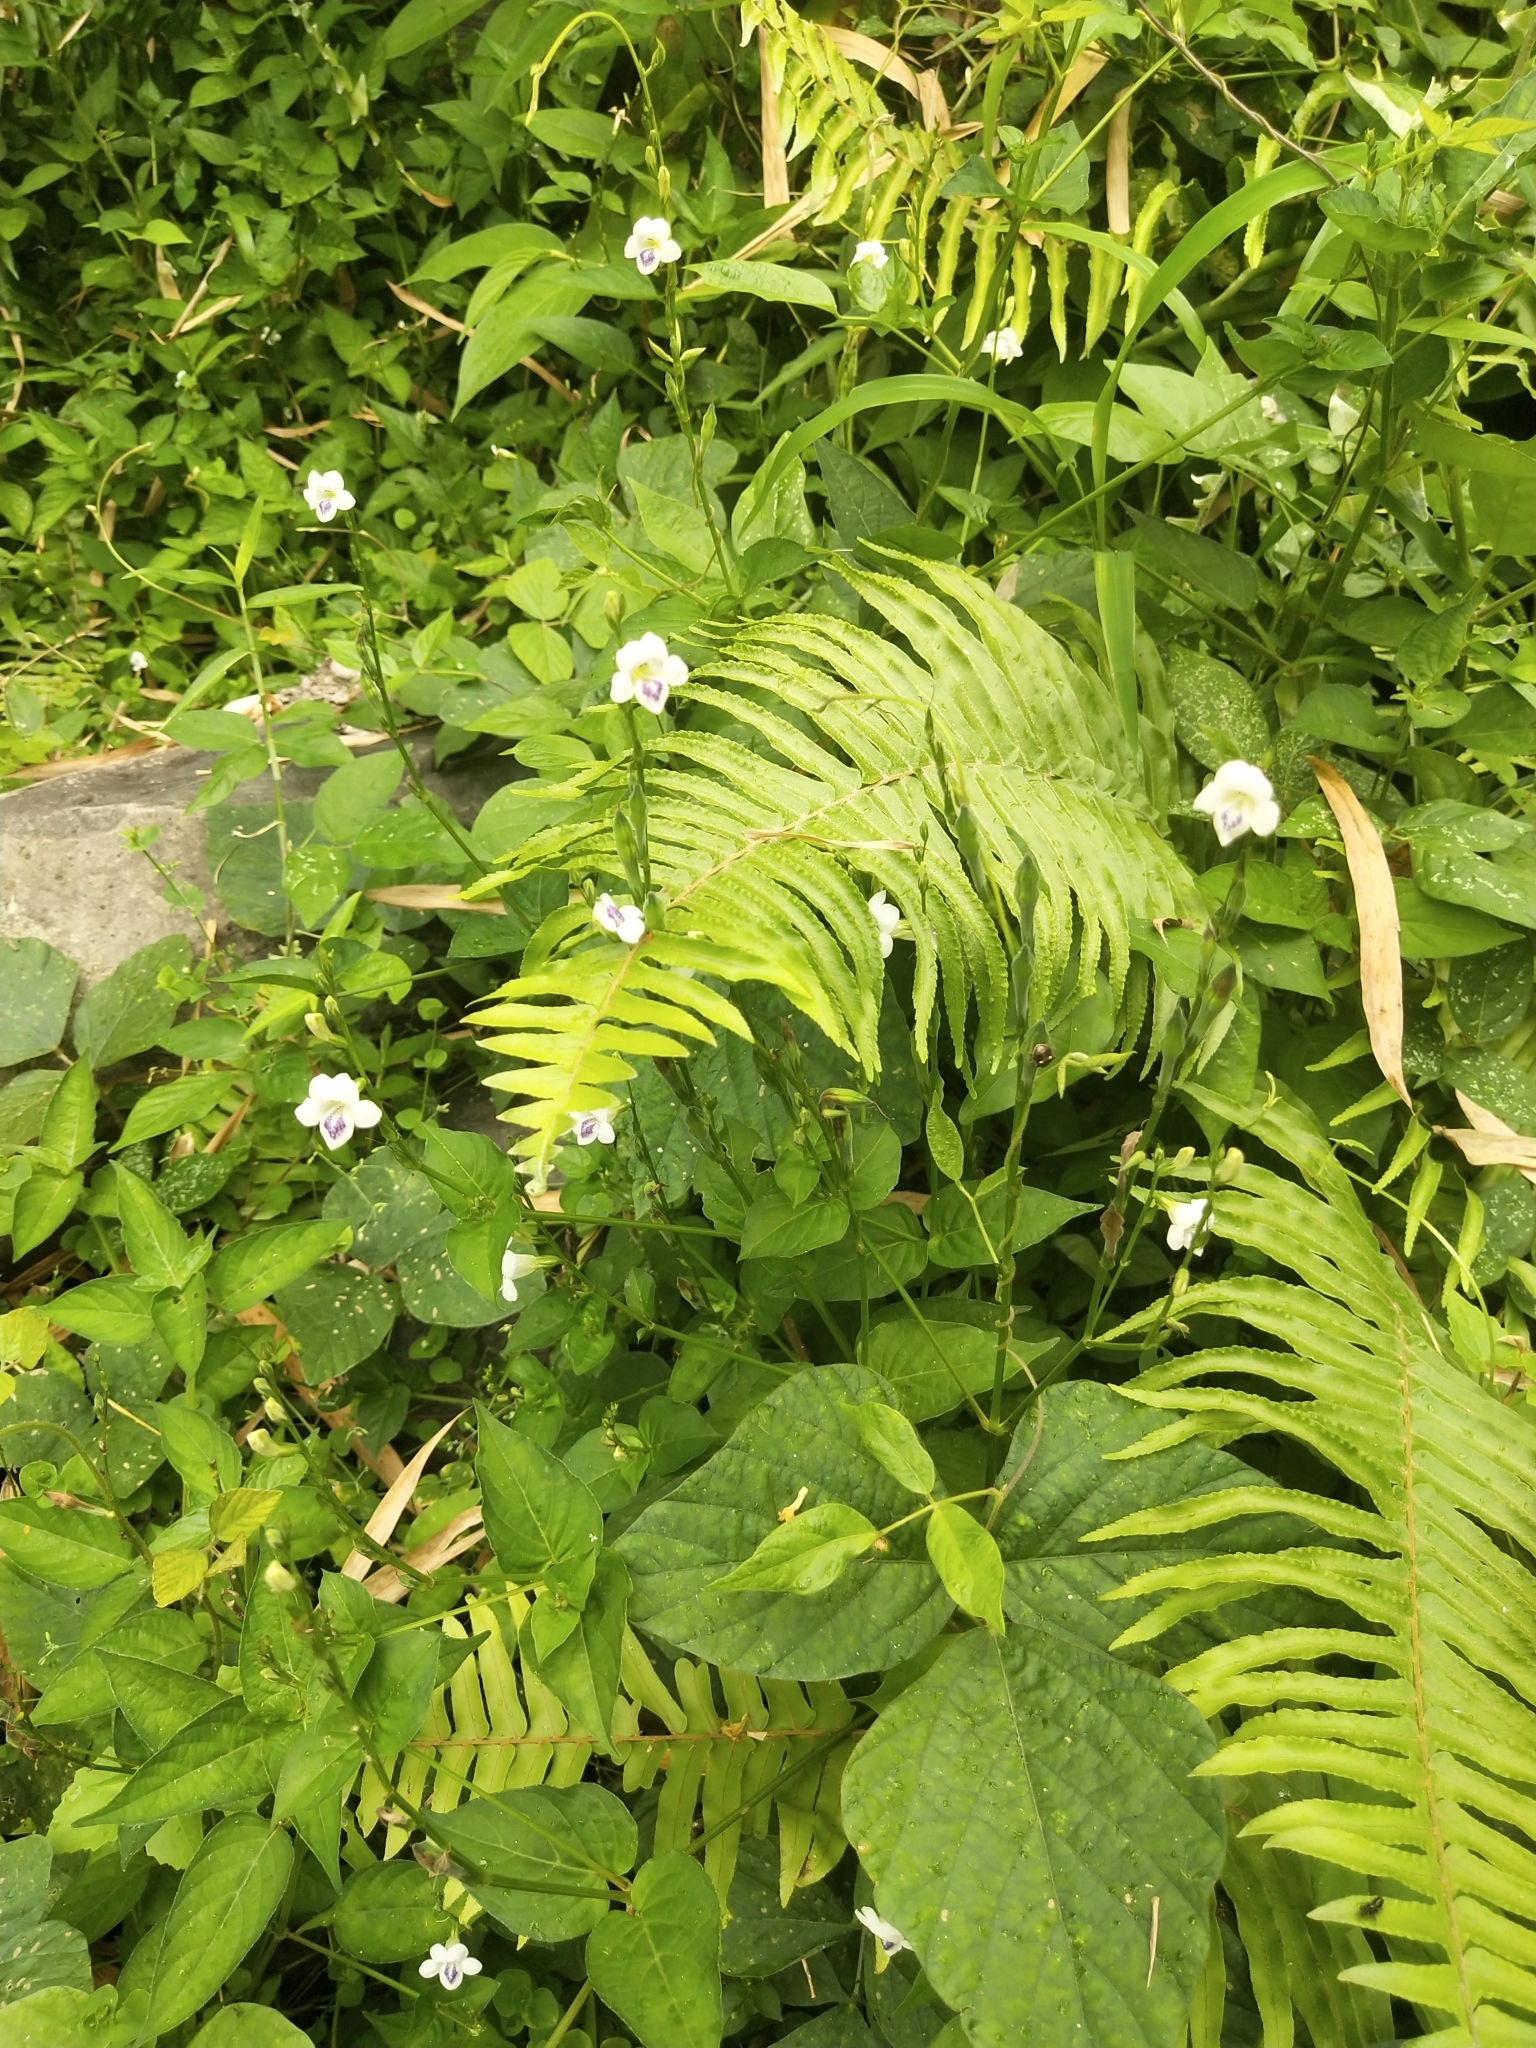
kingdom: Plantae
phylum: Tracheophyta
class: Magnoliopsida
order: Lamiales
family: Acanthaceae
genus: Asystasia
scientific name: Asystasia intrusa
